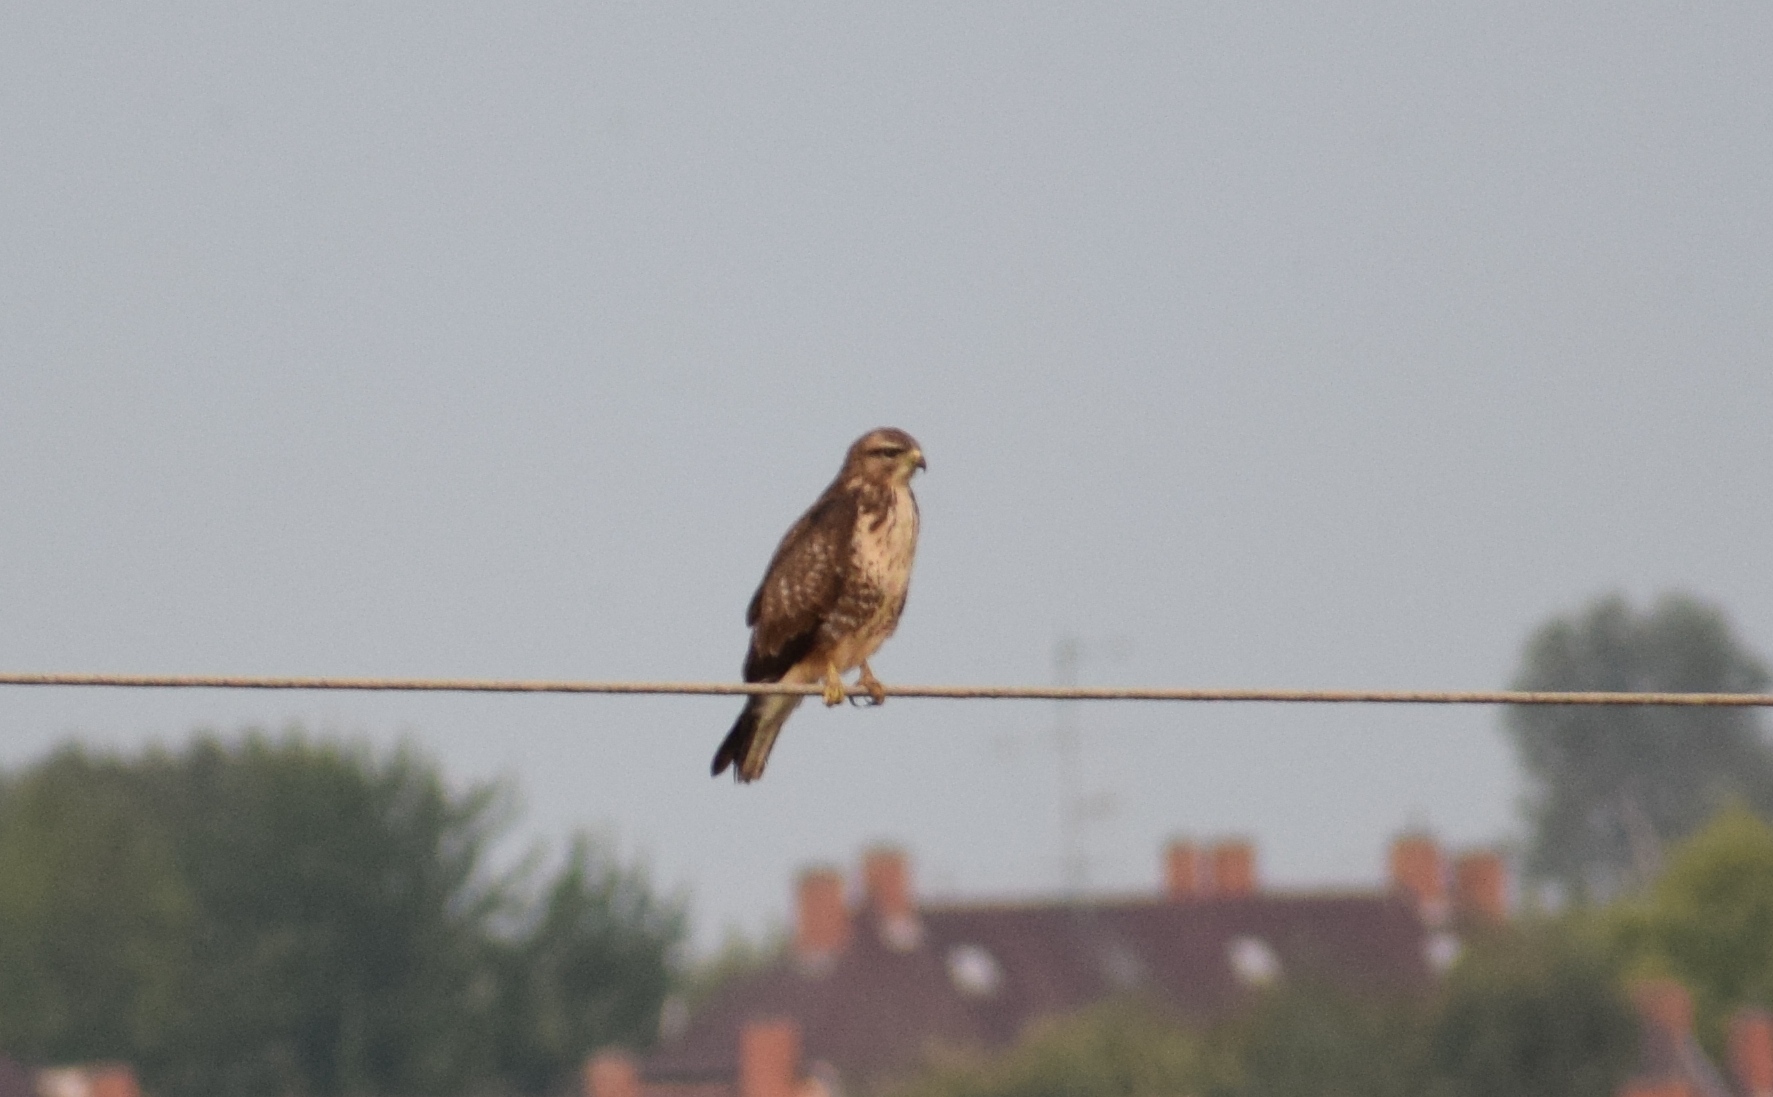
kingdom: Animalia
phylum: Chordata
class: Aves
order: Accipitriformes
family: Accipitridae
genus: Buteo
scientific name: Buteo buteo
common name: Common buzzard
